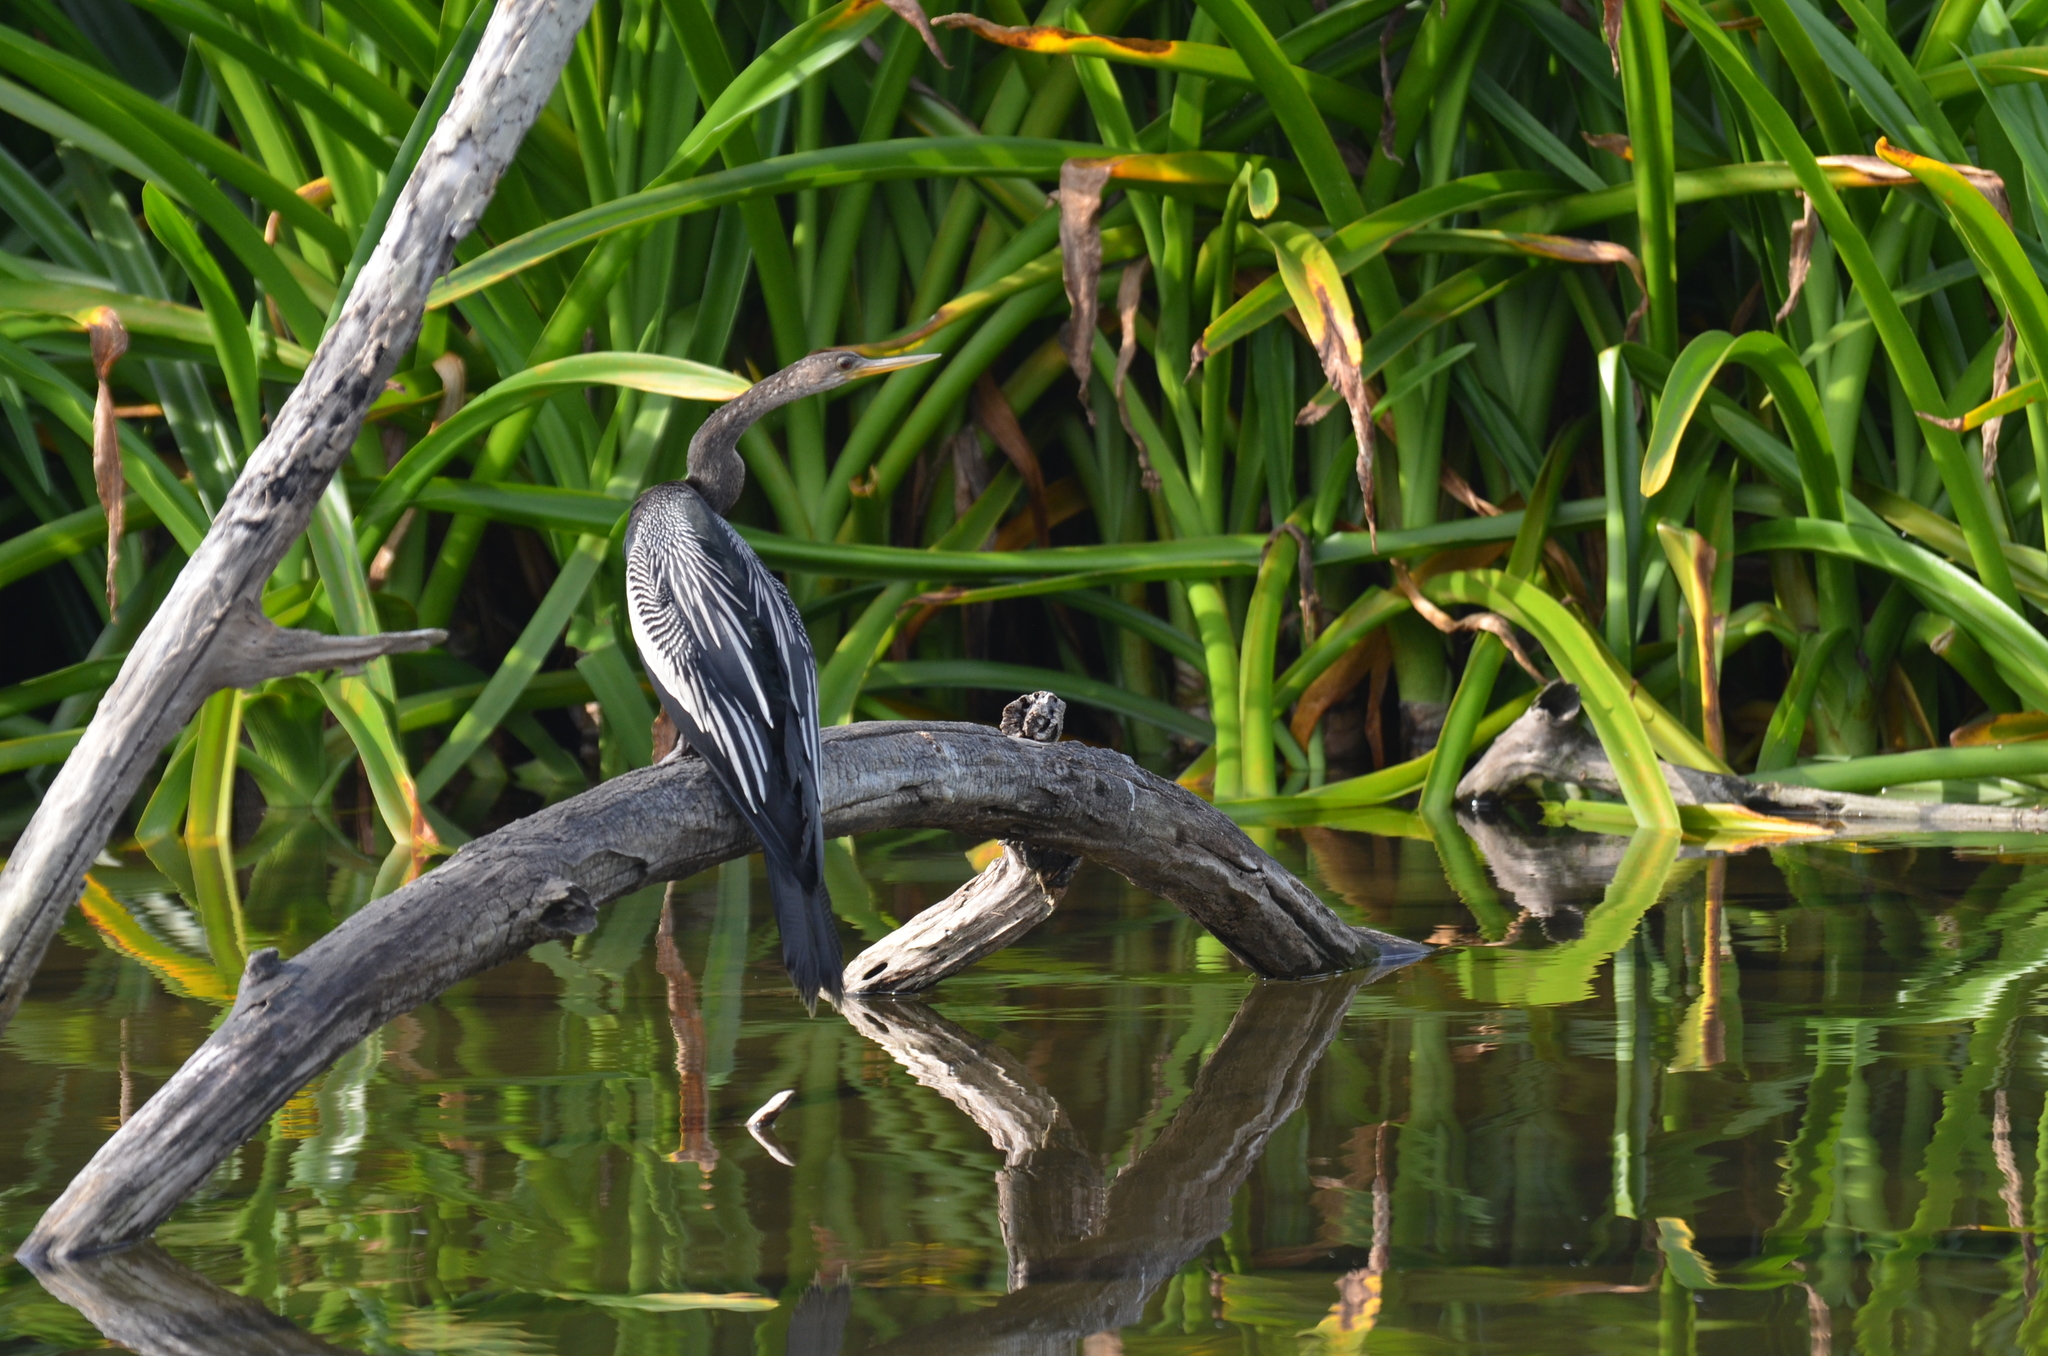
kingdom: Animalia
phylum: Chordata
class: Aves
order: Suliformes
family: Anhingidae
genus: Anhinga
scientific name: Anhinga anhinga
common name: Anhinga
